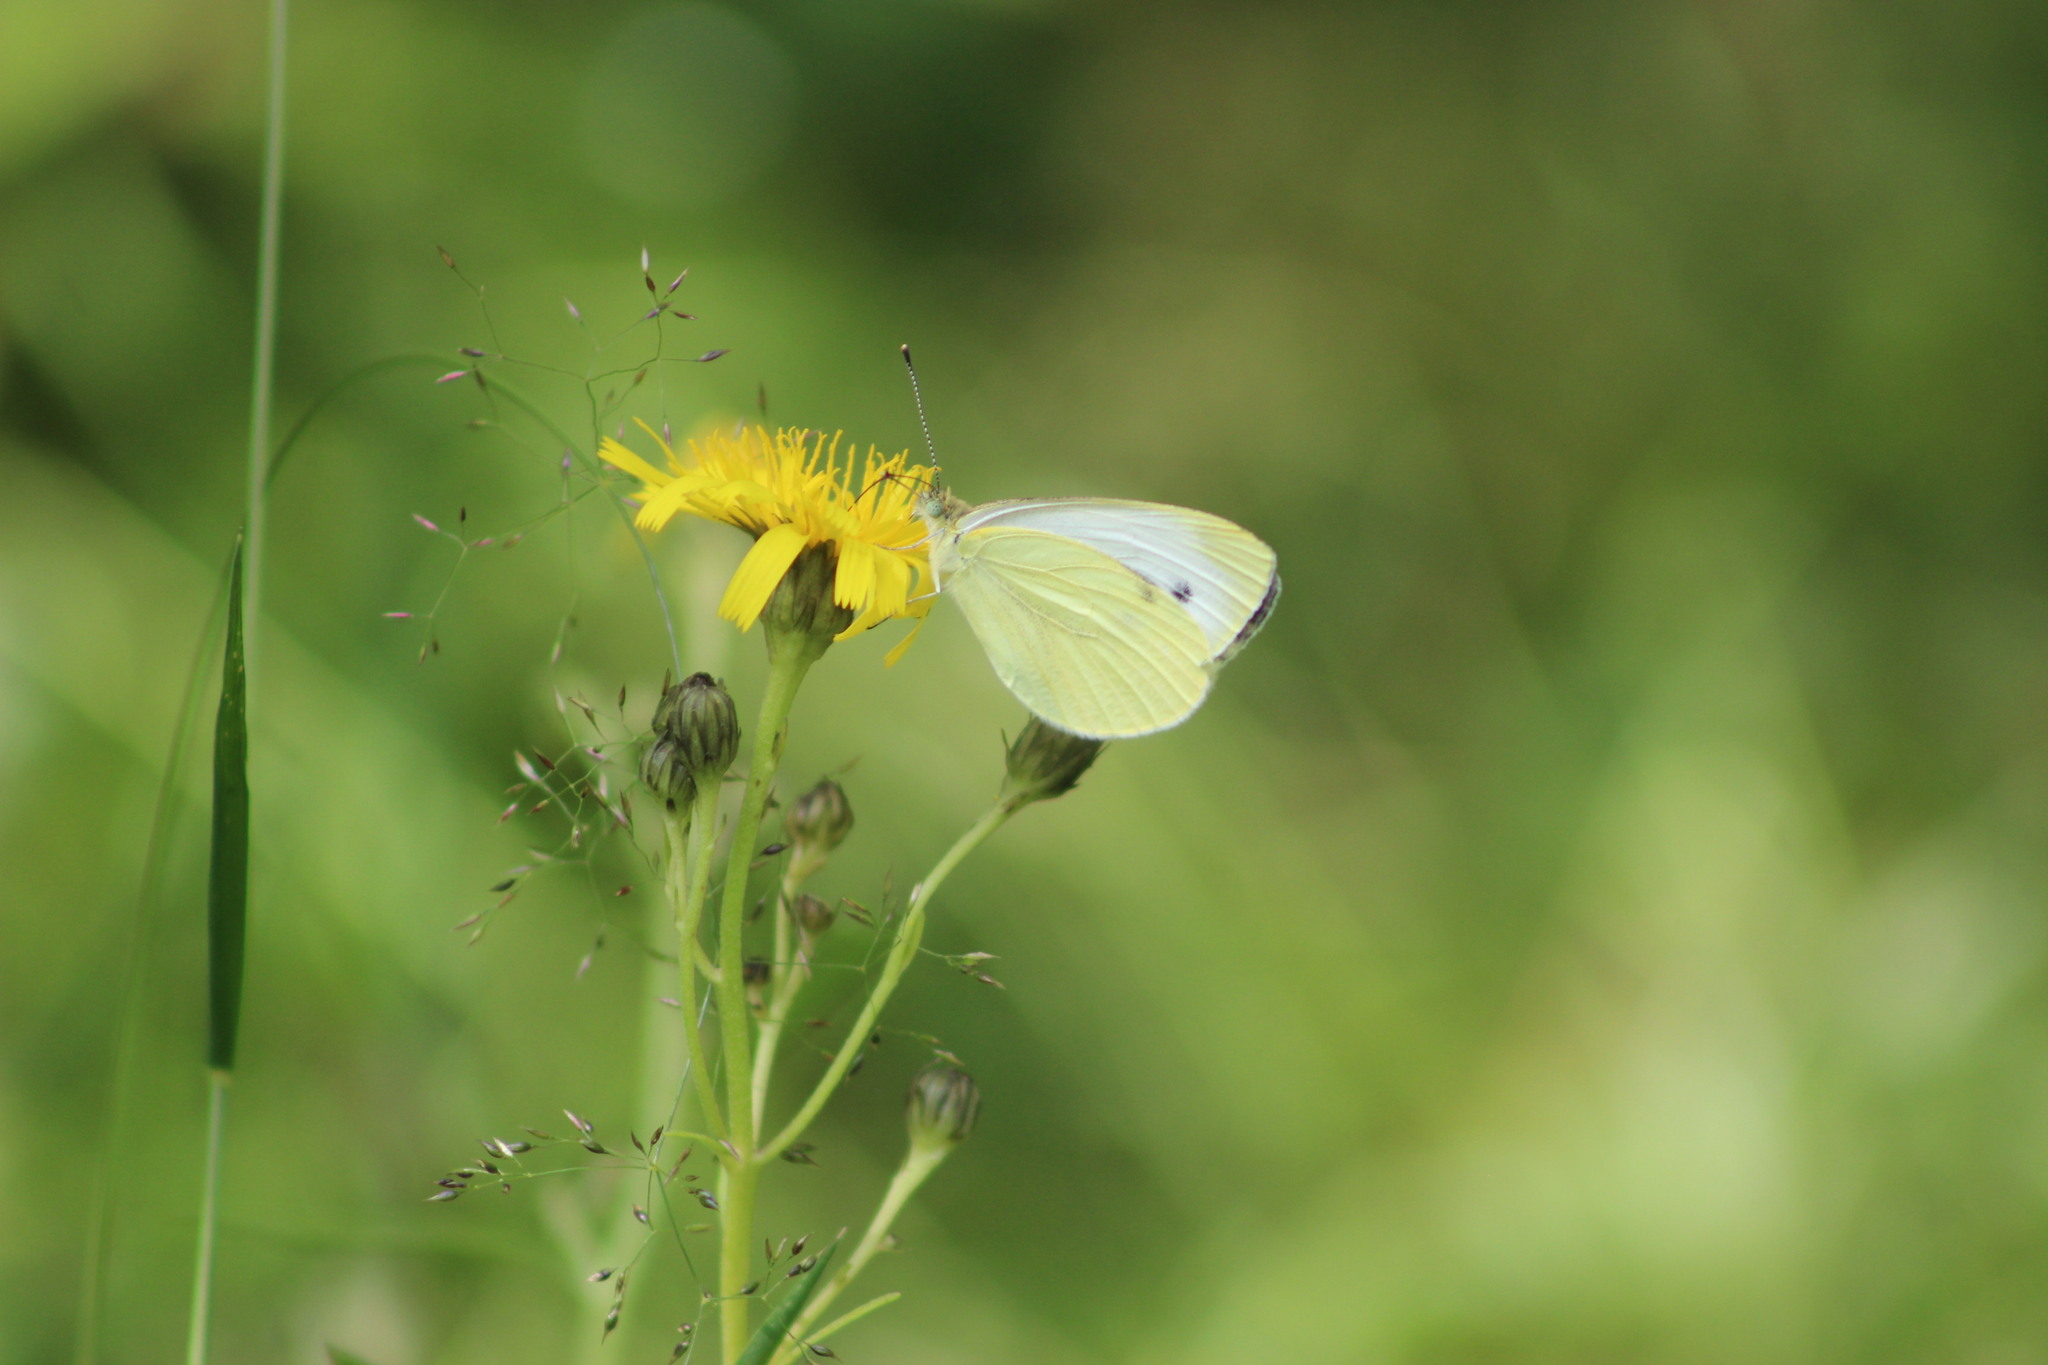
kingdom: Animalia
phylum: Arthropoda
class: Insecta
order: Lepidoptera
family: Pieridae
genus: Pieris
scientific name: Pieris napi
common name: Green-veined white
